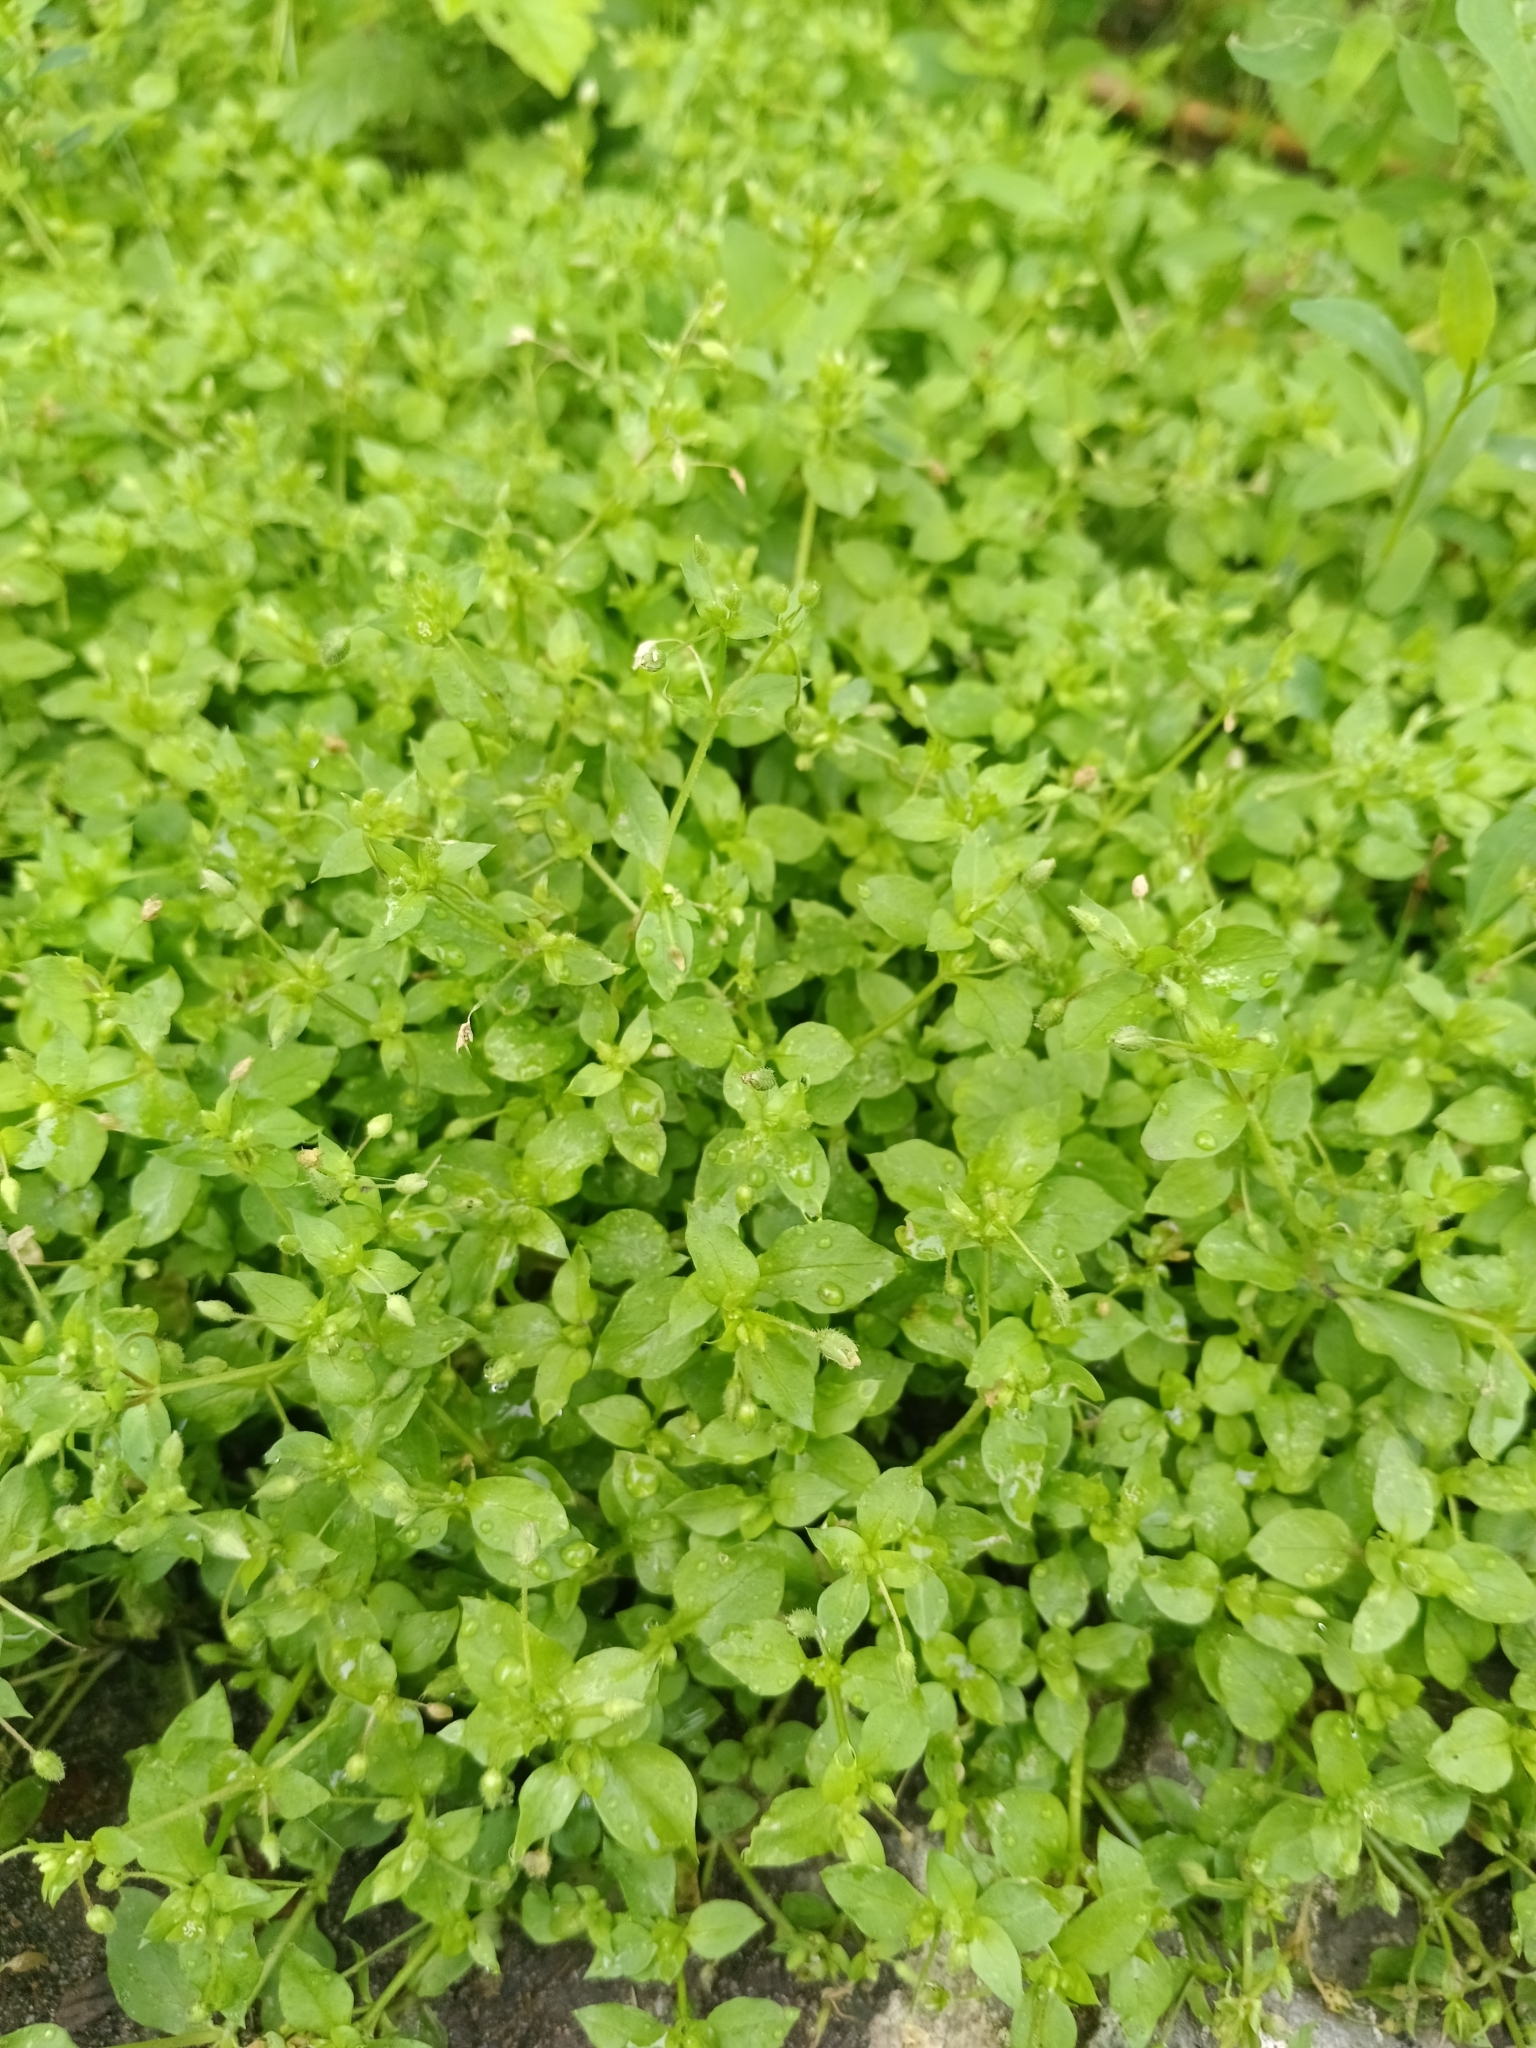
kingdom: Plantae
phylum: Tracheophyta
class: Magnoliopsida
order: Caryophyllales
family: Caryophyllaceae
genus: Stellaria
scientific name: Stellaria media
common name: Common chickweed
